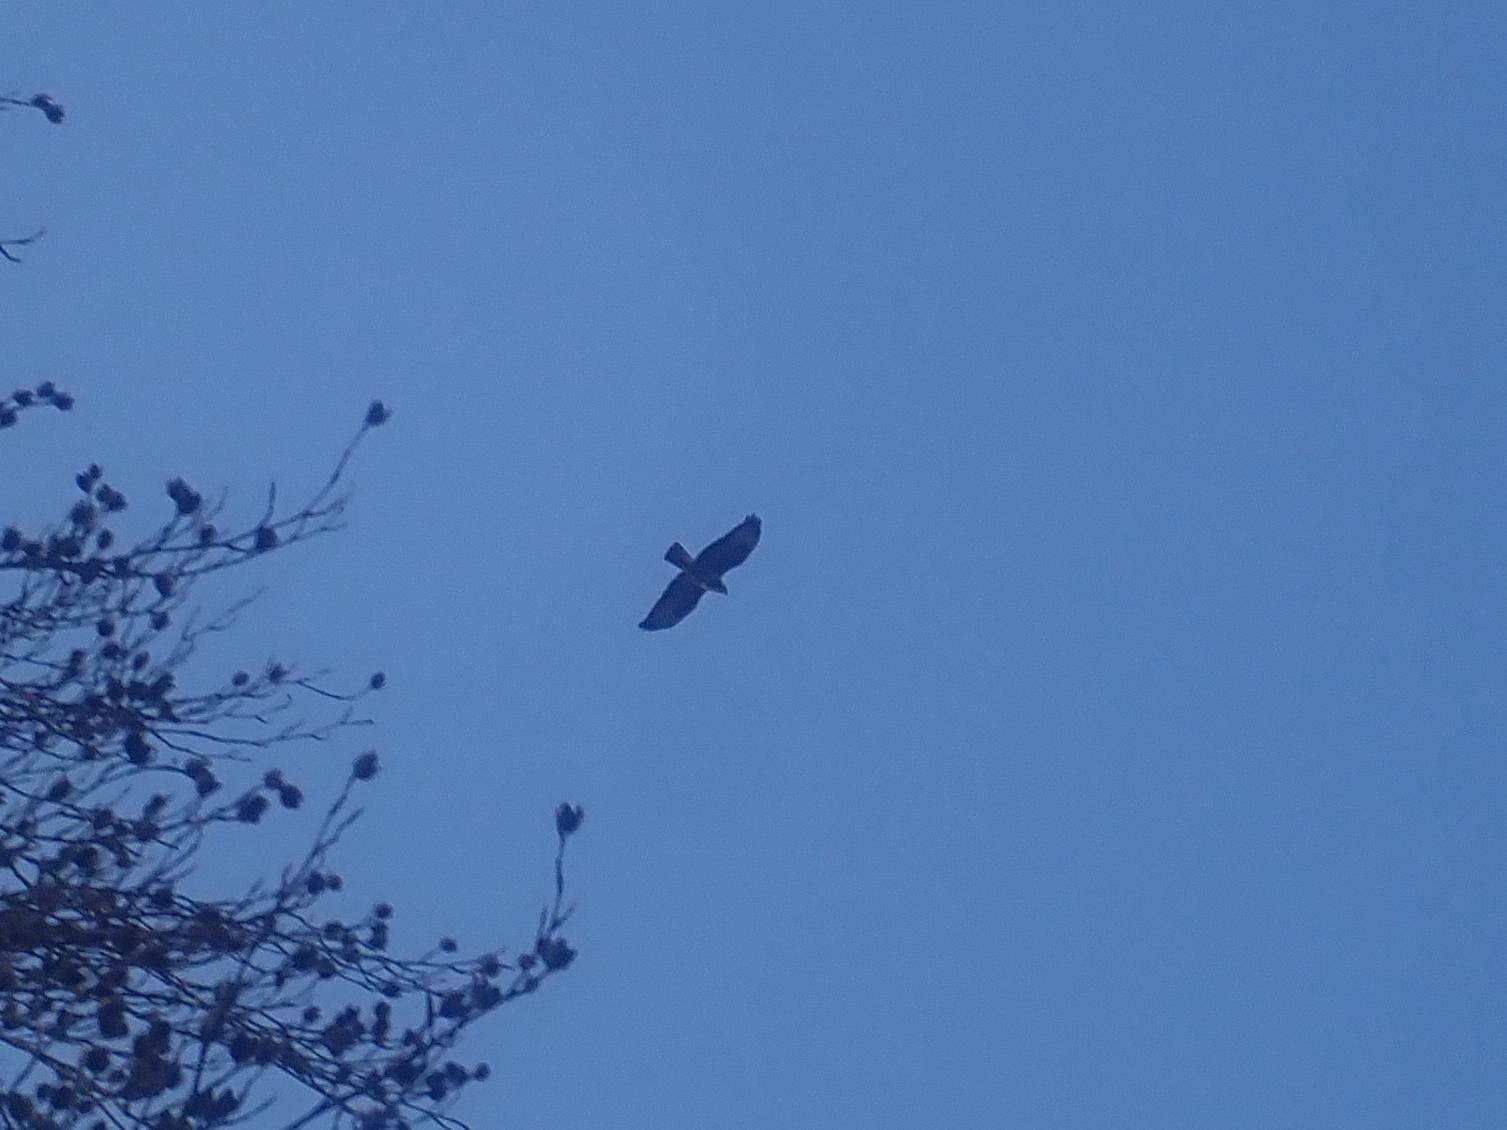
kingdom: Animalia
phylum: Chordata
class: Aves
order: Accipitriformes
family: Accipitridae
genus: Buteo
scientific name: Buteo buteo
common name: Common buzzard
